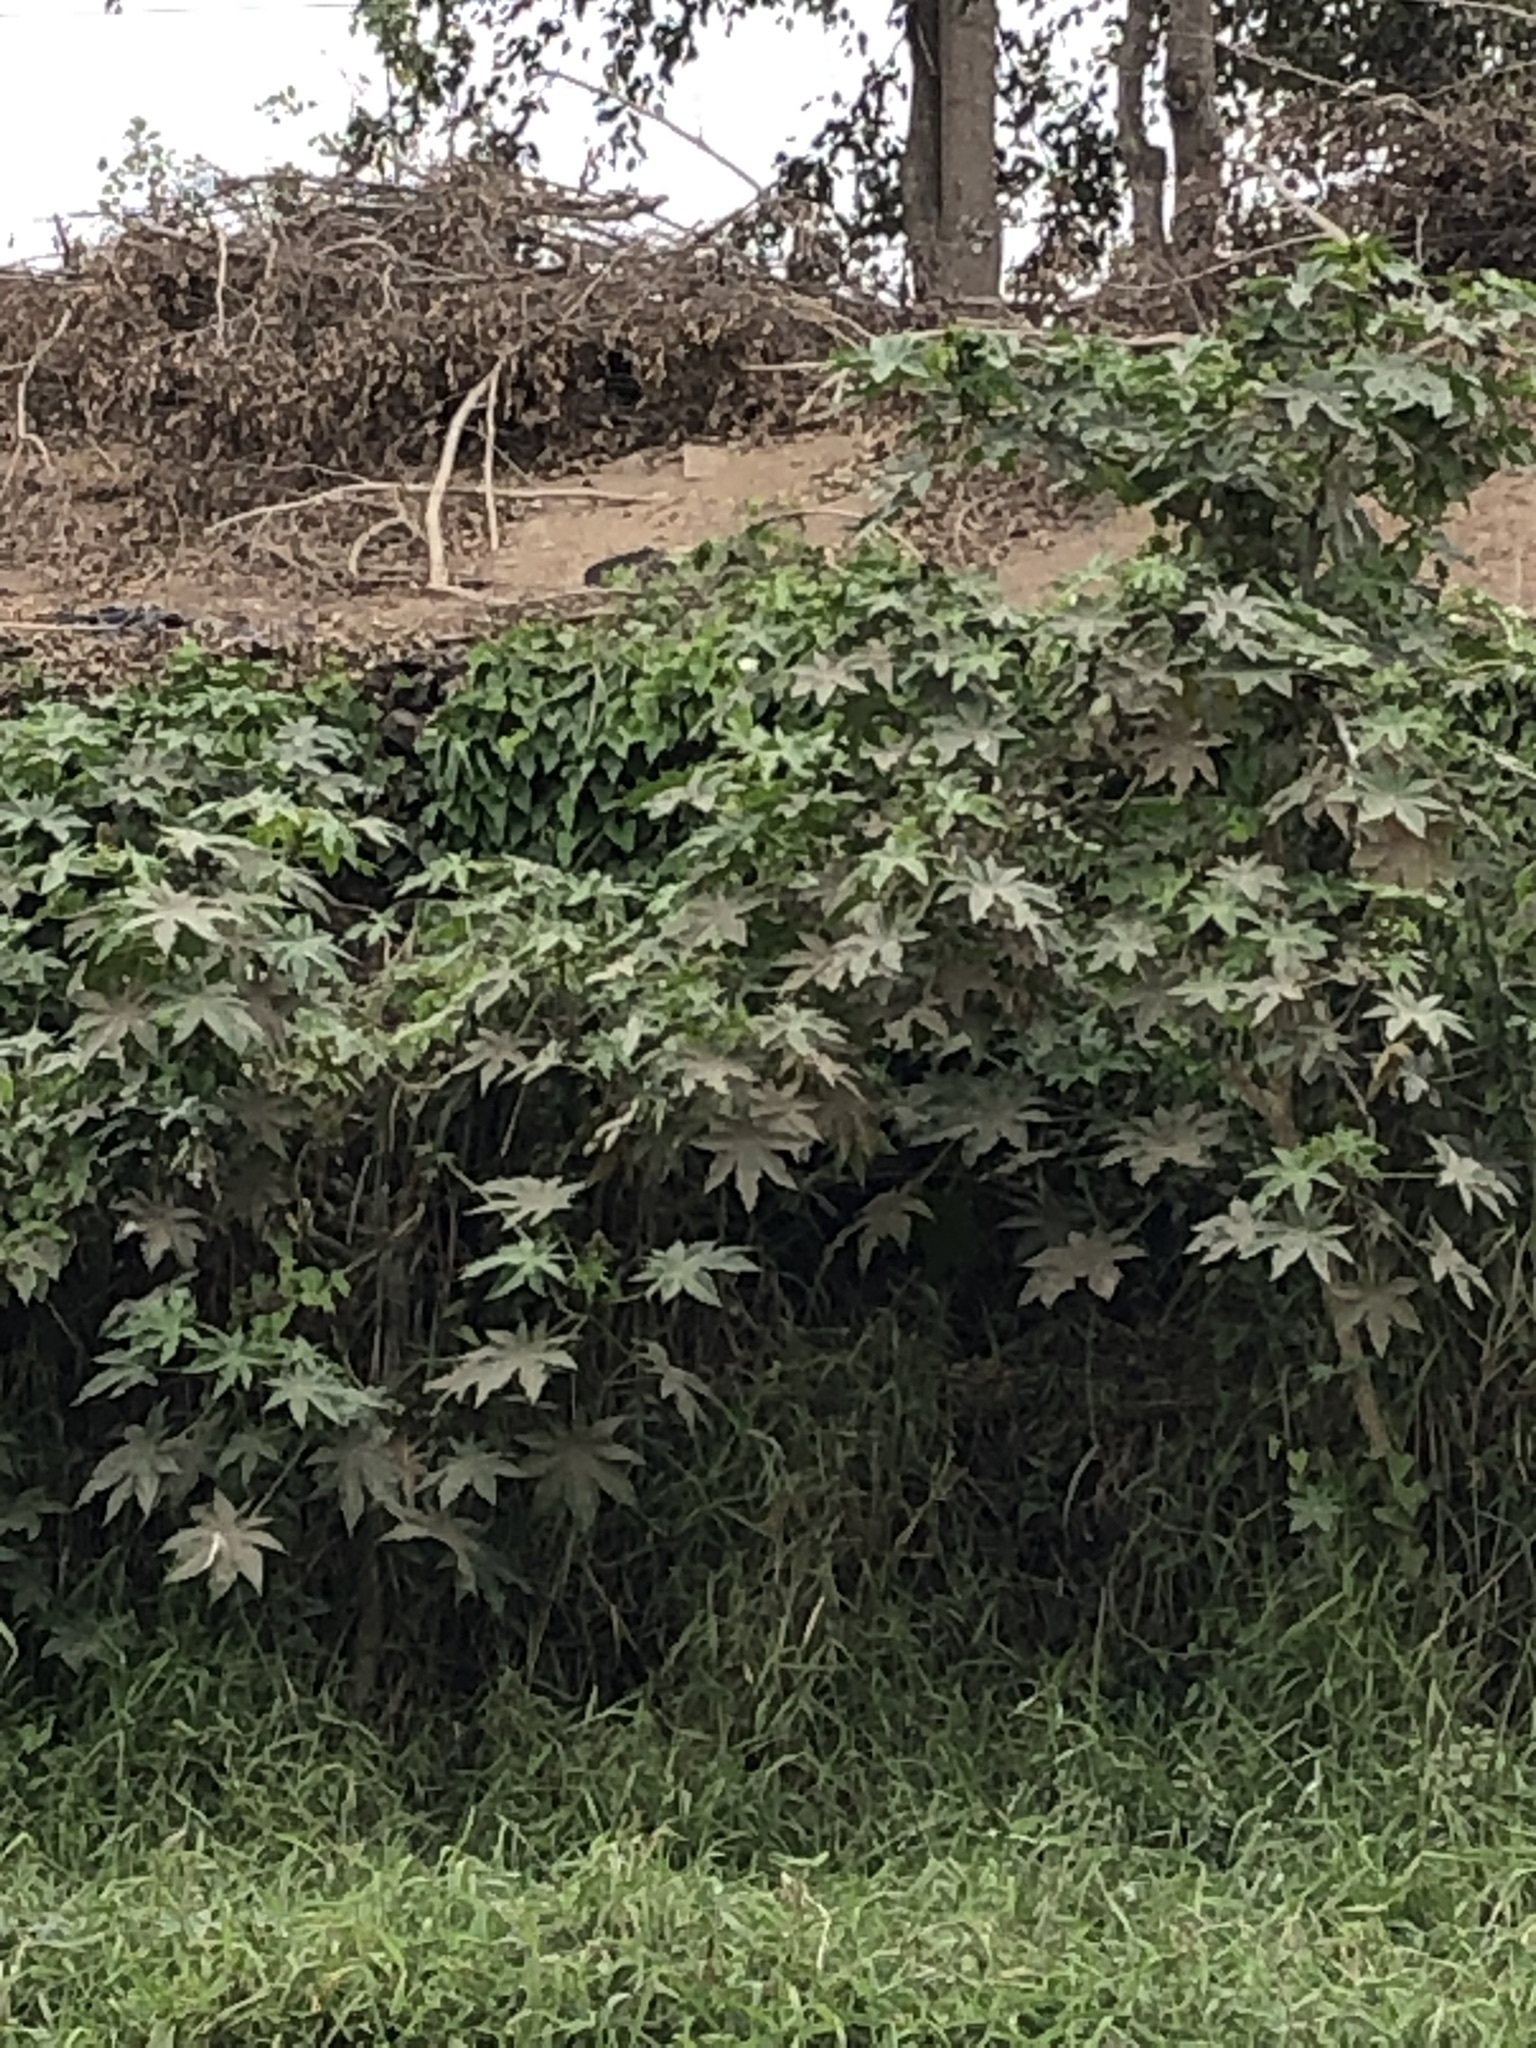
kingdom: Plantae
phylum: Tracheophyta
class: Magnoliopsida
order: Malpighiales
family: Euphorbiaceae
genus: Ricinus
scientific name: Ricinus communis
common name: Castor-oil-plant
